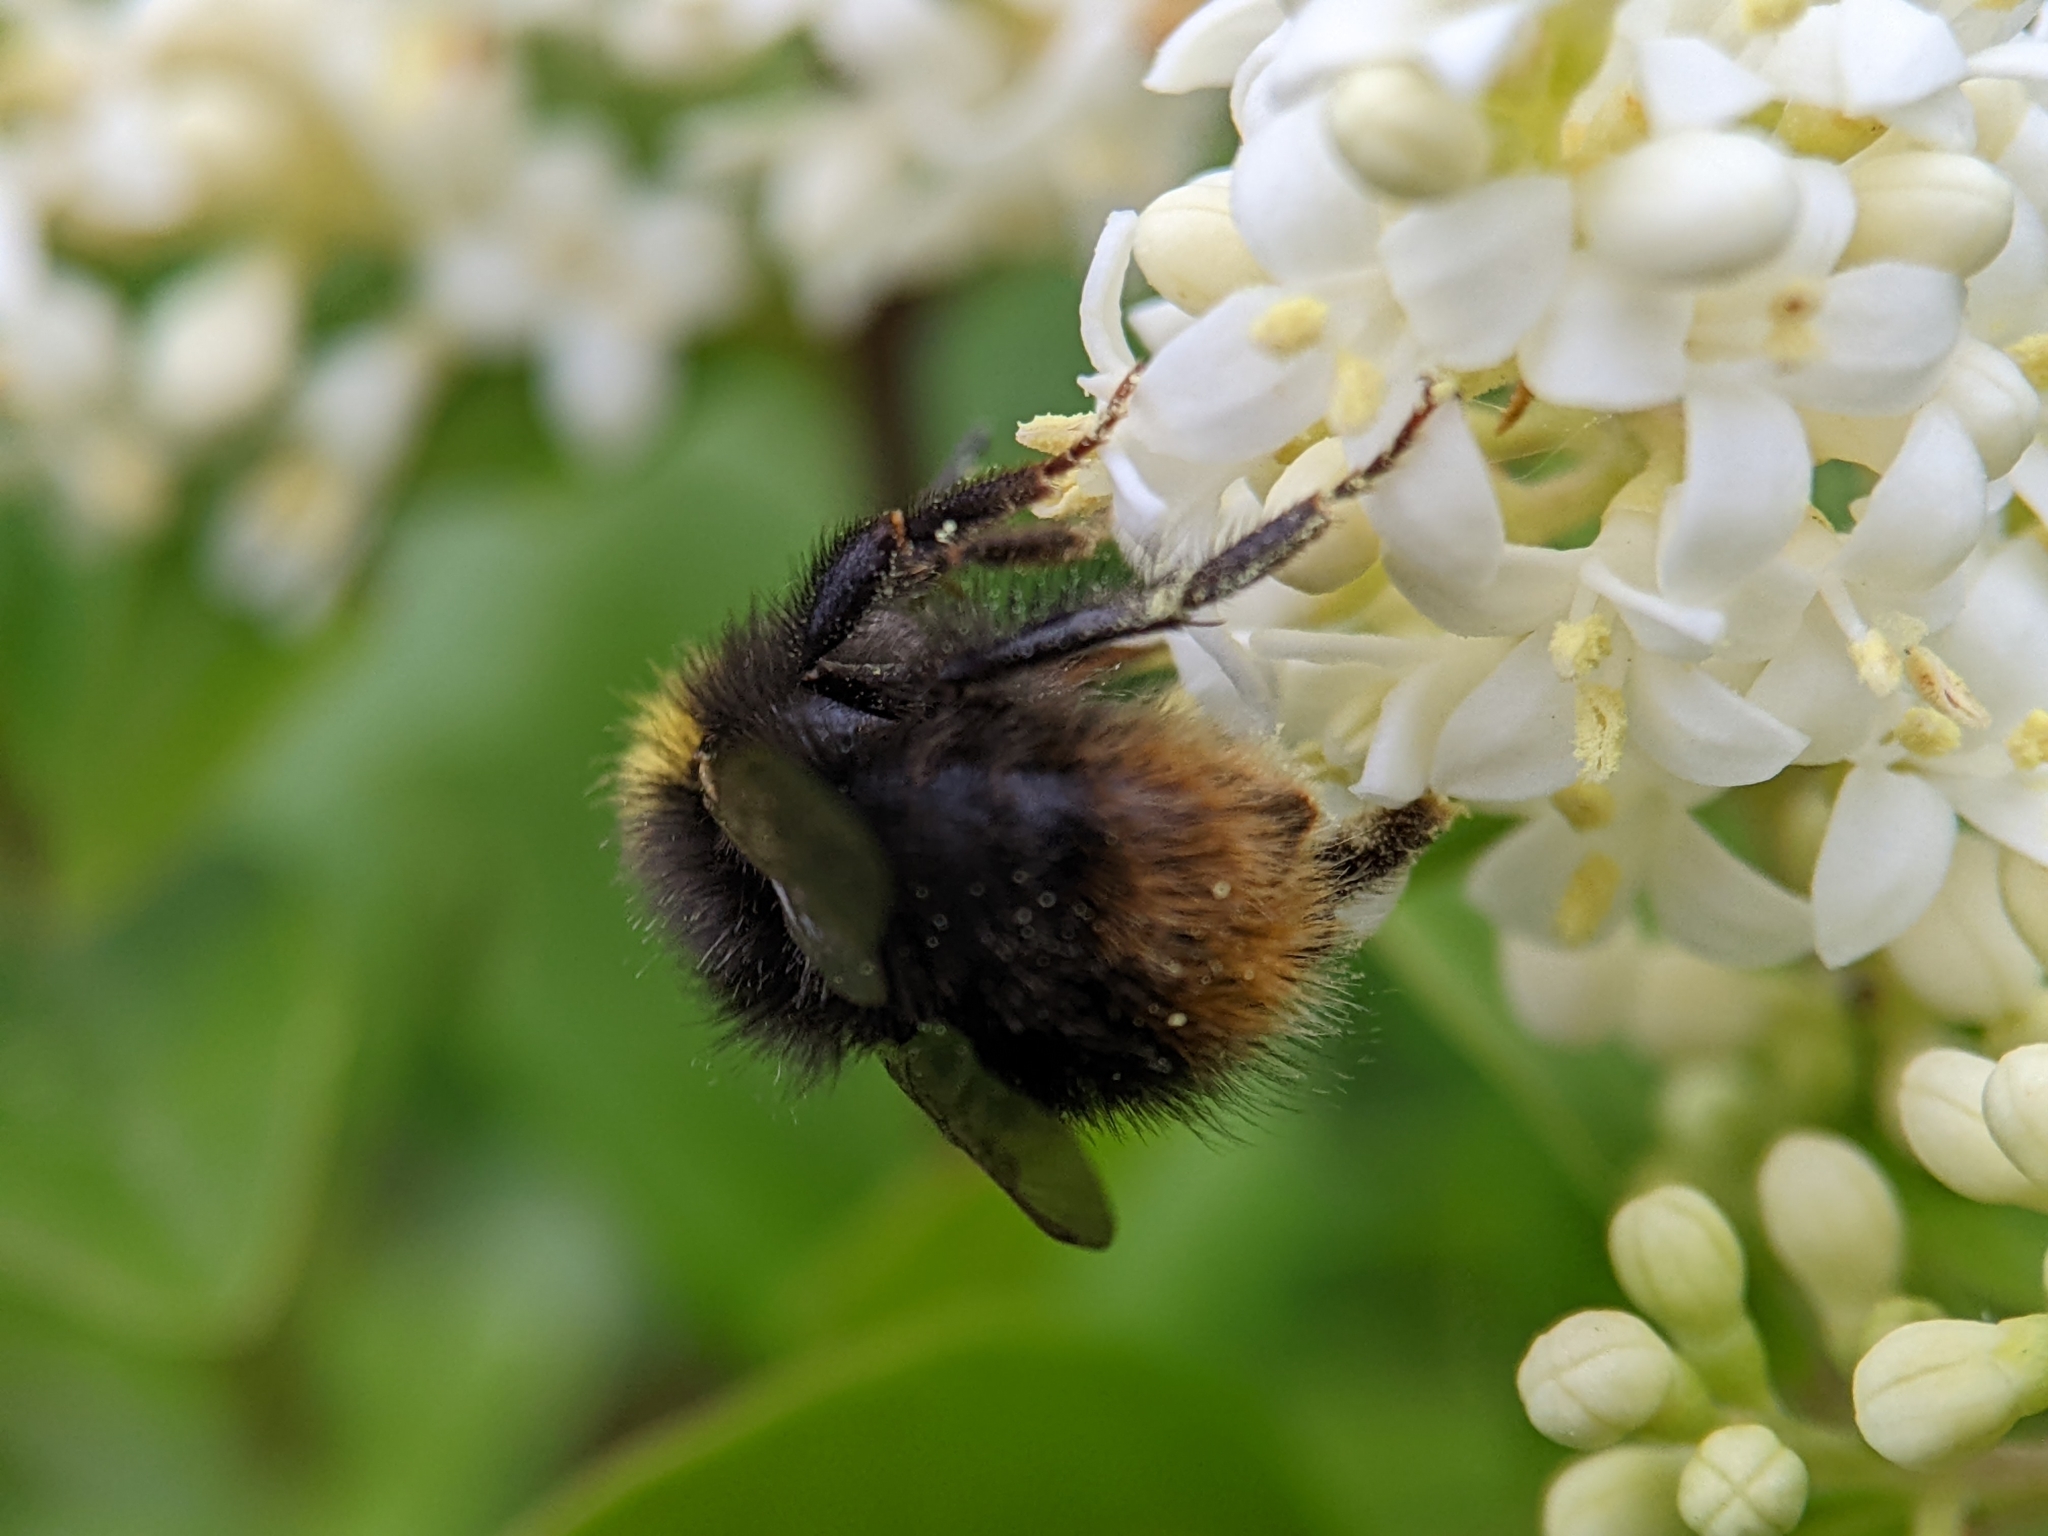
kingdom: Animalia
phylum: Arthropoda
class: Insecta
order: Hymenoptera
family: Apidae
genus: Bombus
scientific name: Bombus pratorum
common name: Early humble-bee
